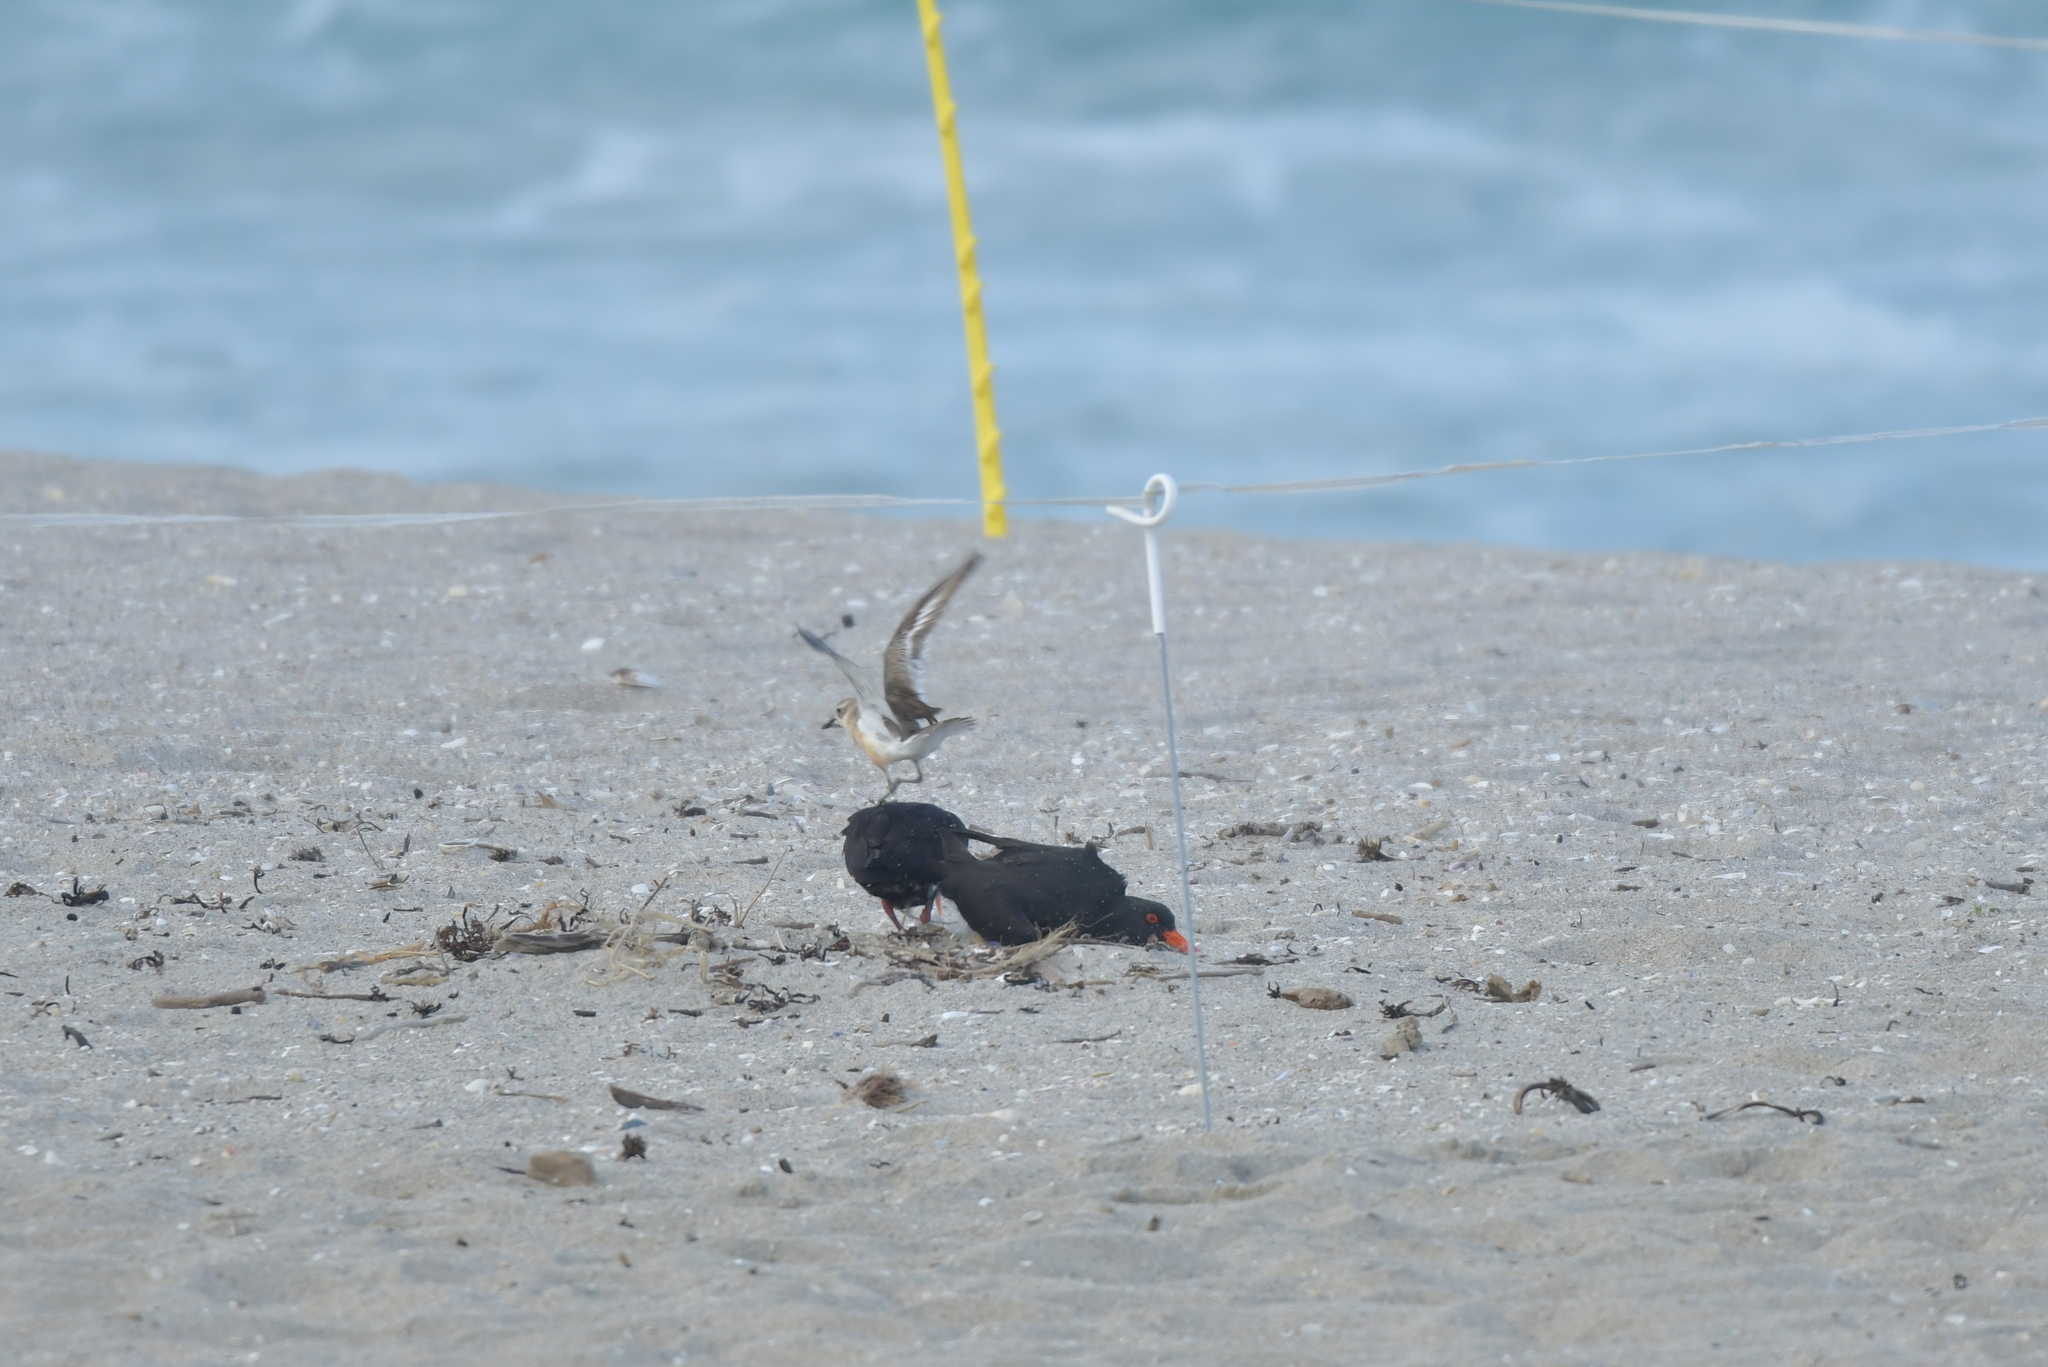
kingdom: Animalia
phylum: Chordata
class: Aves
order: Charadriiformes
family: Charadriidae
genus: Anarhynchus
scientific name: Anarhynchus
